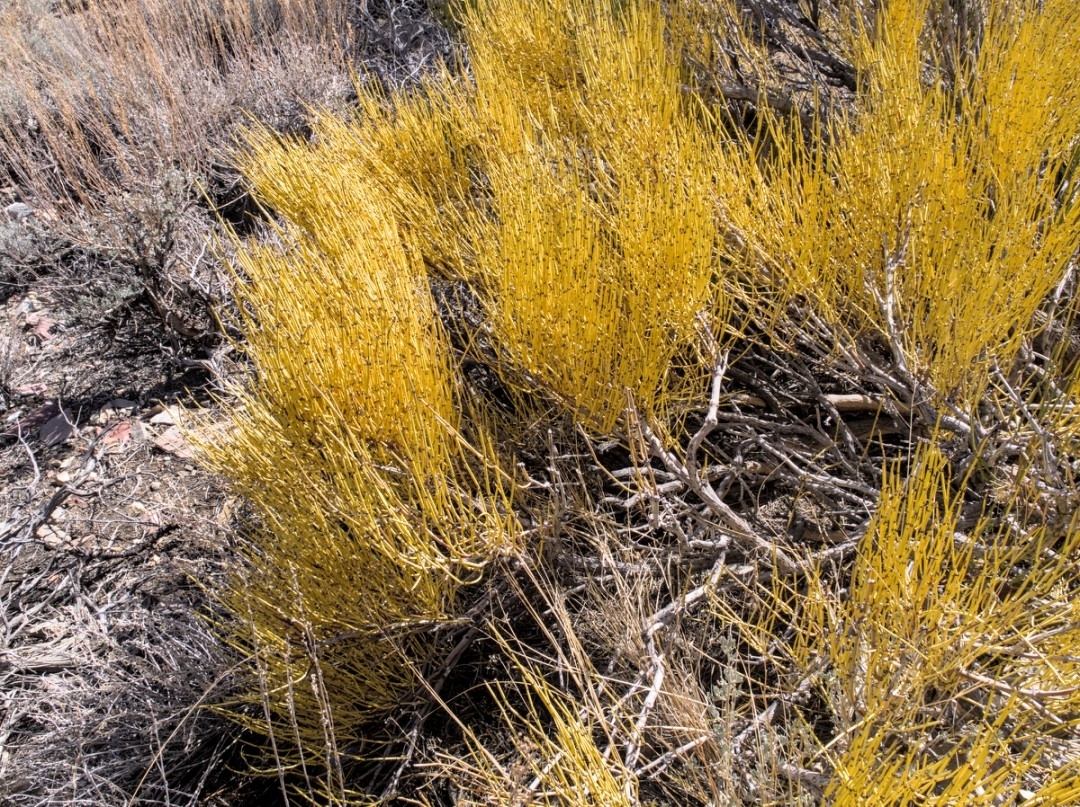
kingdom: Plantae
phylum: Tracheophyta
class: Gnetopsida
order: Ephedrales
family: Ephedraceae
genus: Ephedra
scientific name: Ephedra viridis
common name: Green ephedra
